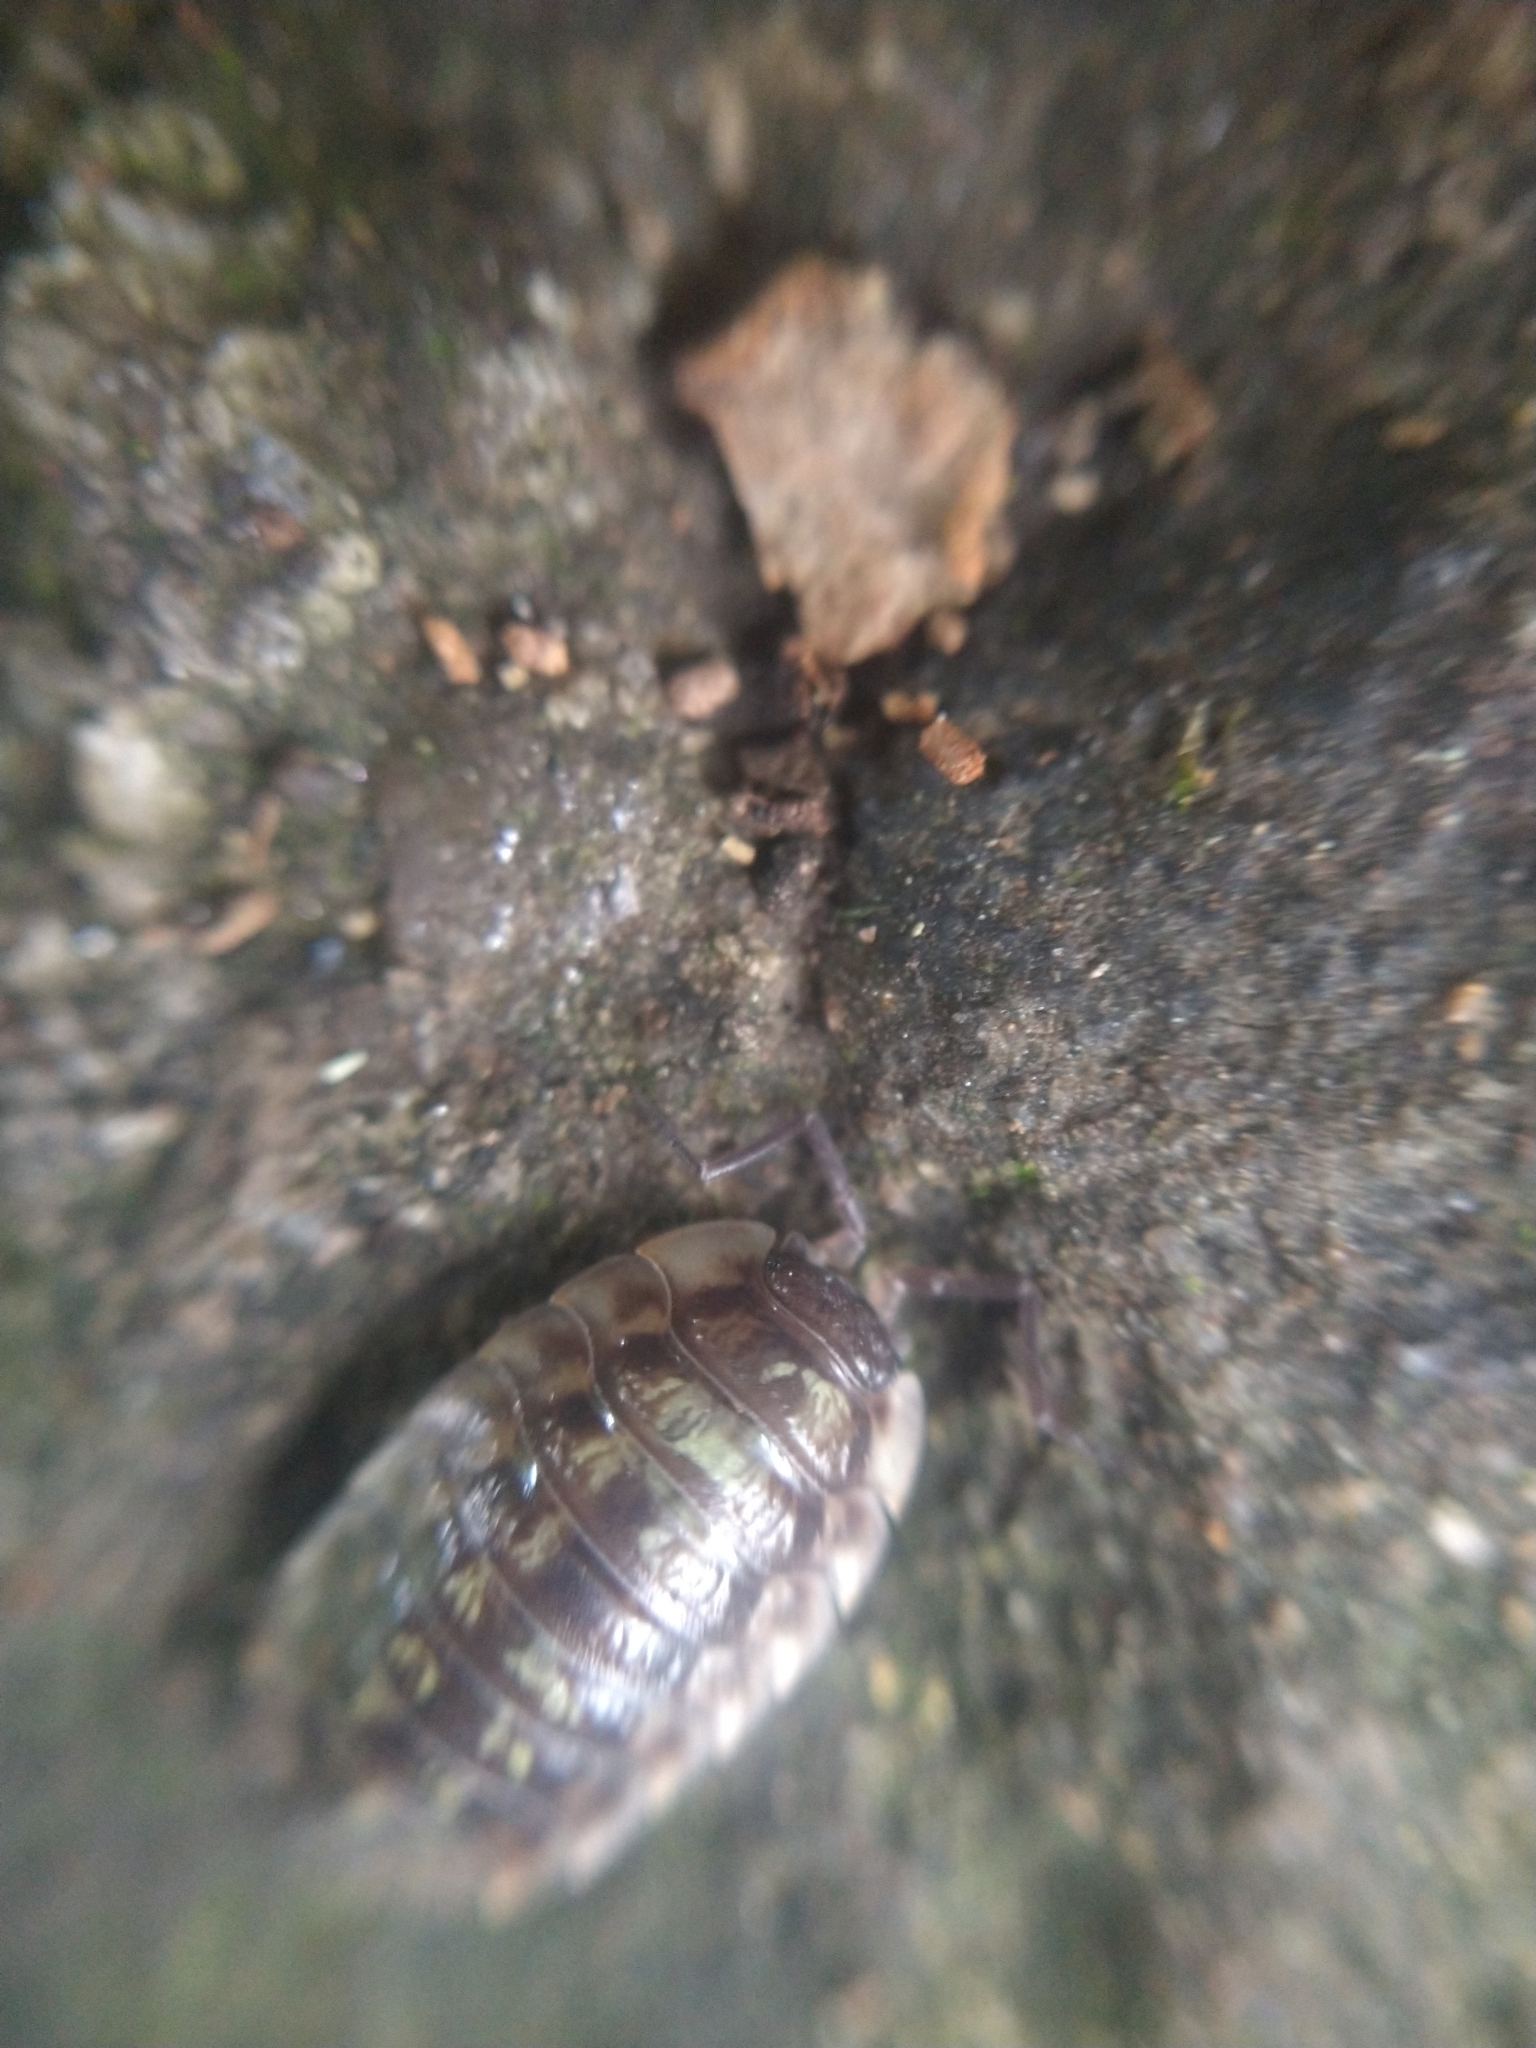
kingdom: Animalia
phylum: Arthropoda
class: Malacostraca
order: Isopoda
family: Oniscidae
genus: Oniscus
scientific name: Oniscus asellus
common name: Common shiny woodlouse
